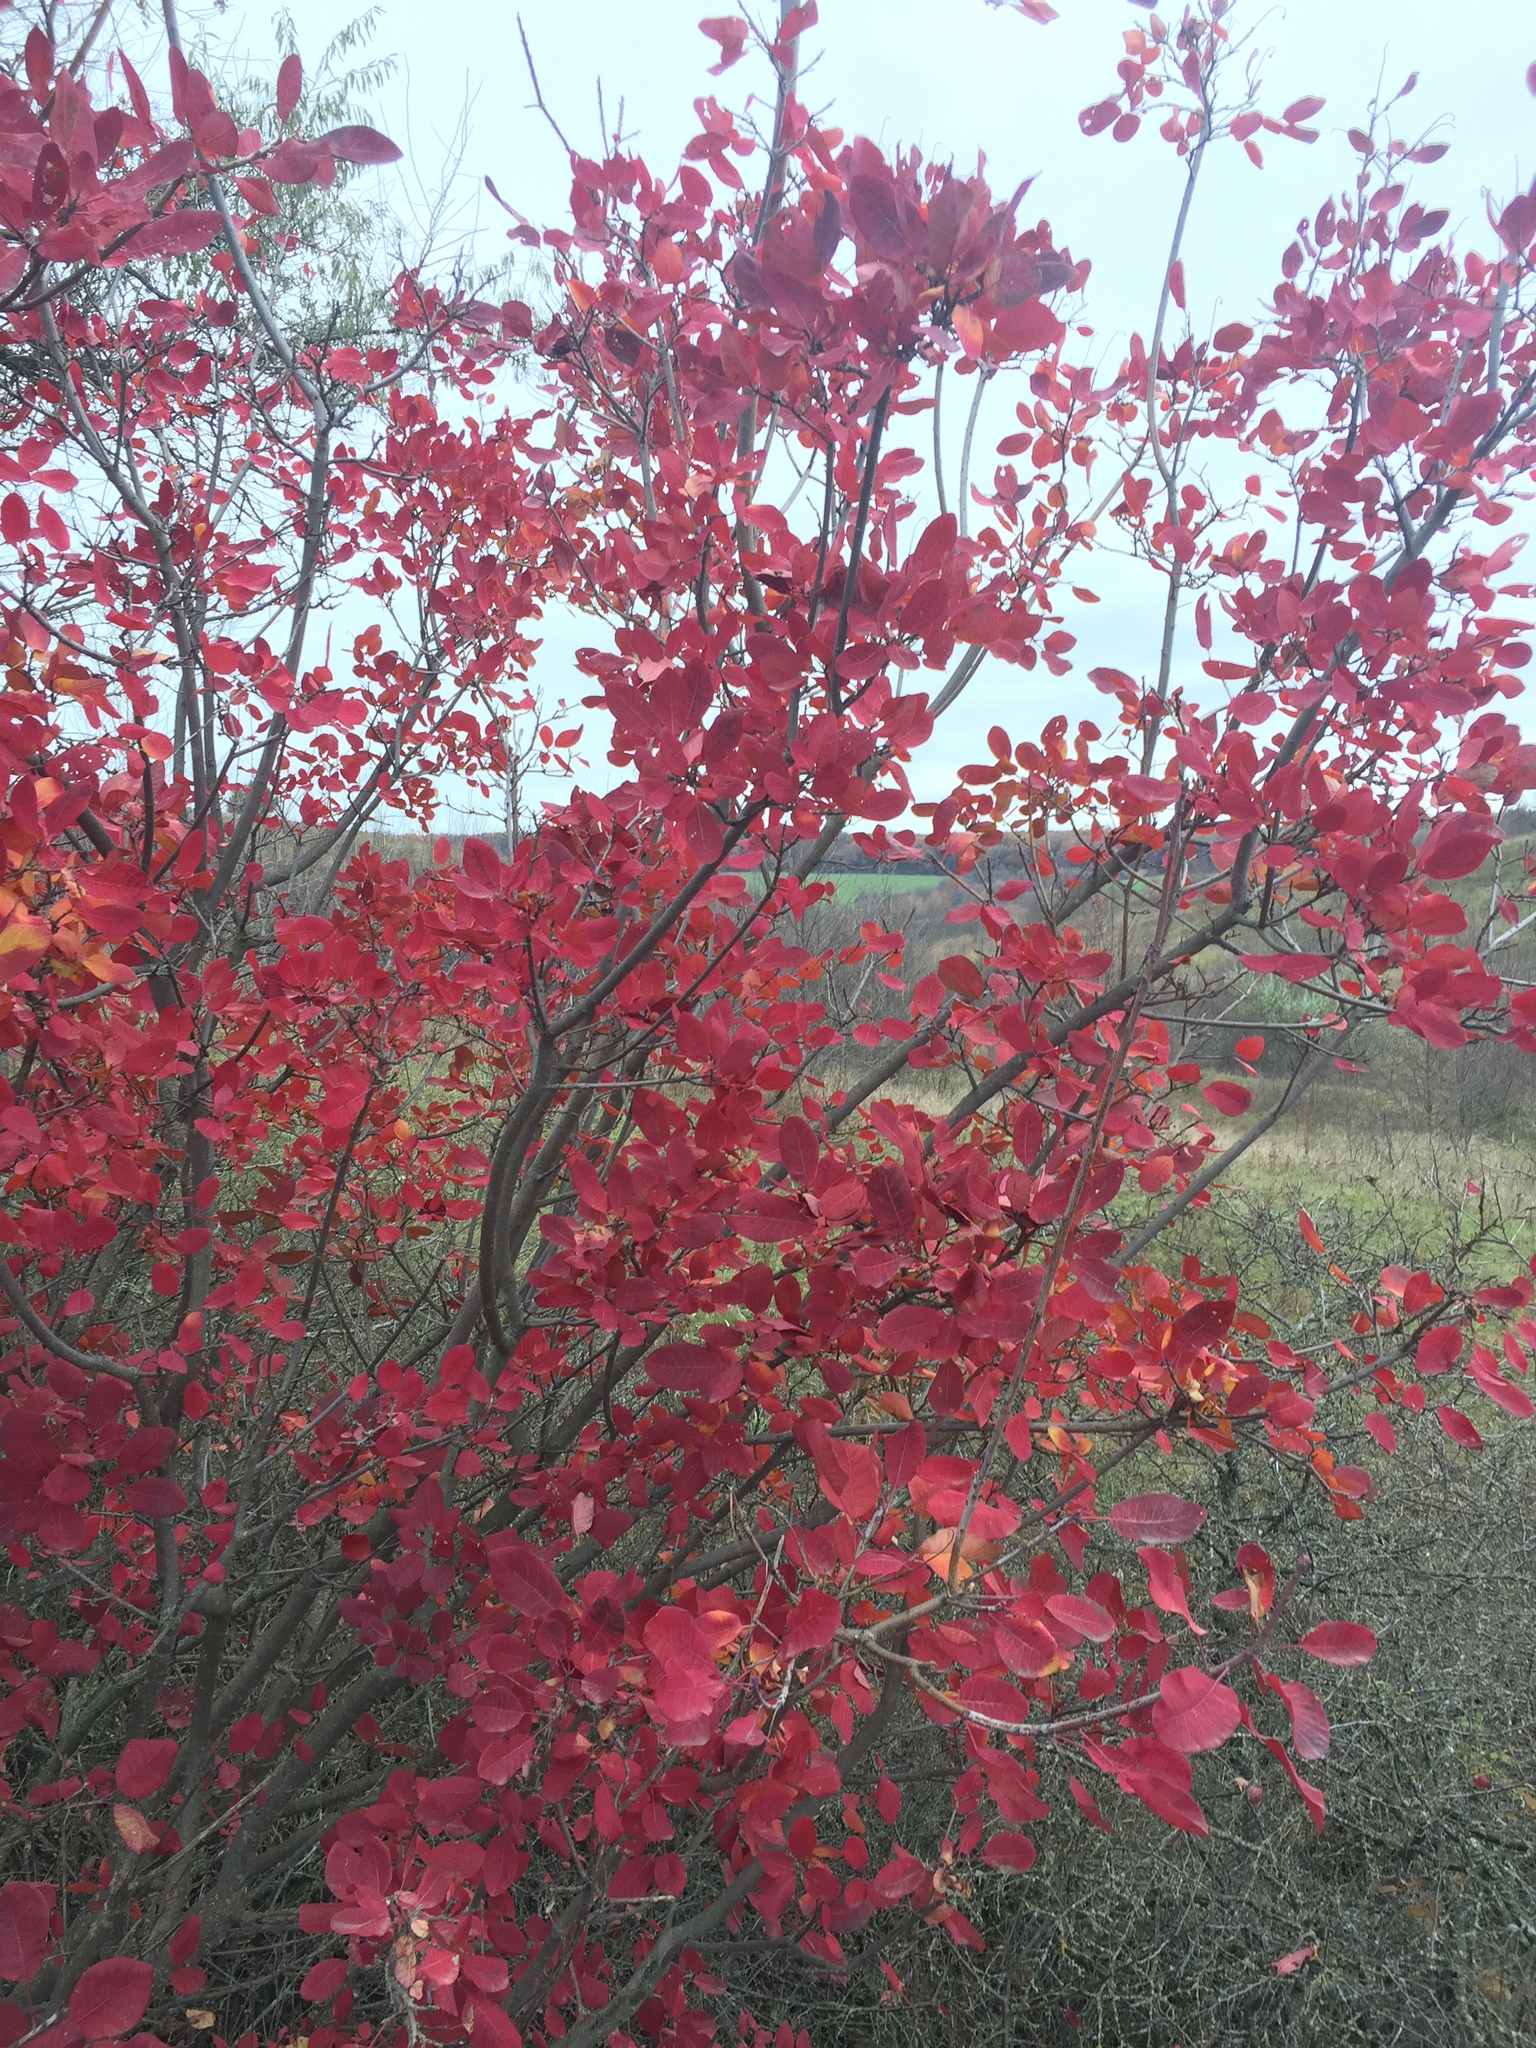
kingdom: Plantae
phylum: Tracheophyta
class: Magnoliopsida
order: Sapindales
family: Anacardiaceae
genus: Cotinus
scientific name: Cotinus coggygria
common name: Smoke-tree
